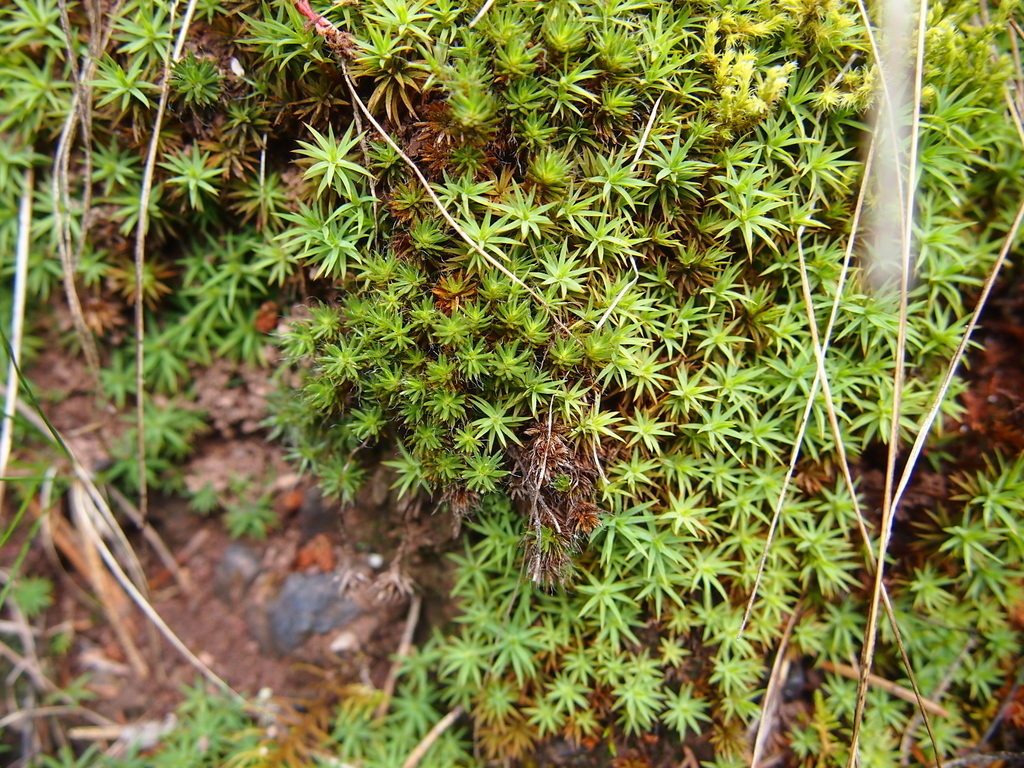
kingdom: Plantae
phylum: Bryophyta
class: Polytrichopsida
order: Polytrichales
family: Polytrichaceae
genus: Polytrichum
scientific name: Polytrichum piliferum
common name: Bristly haircap
